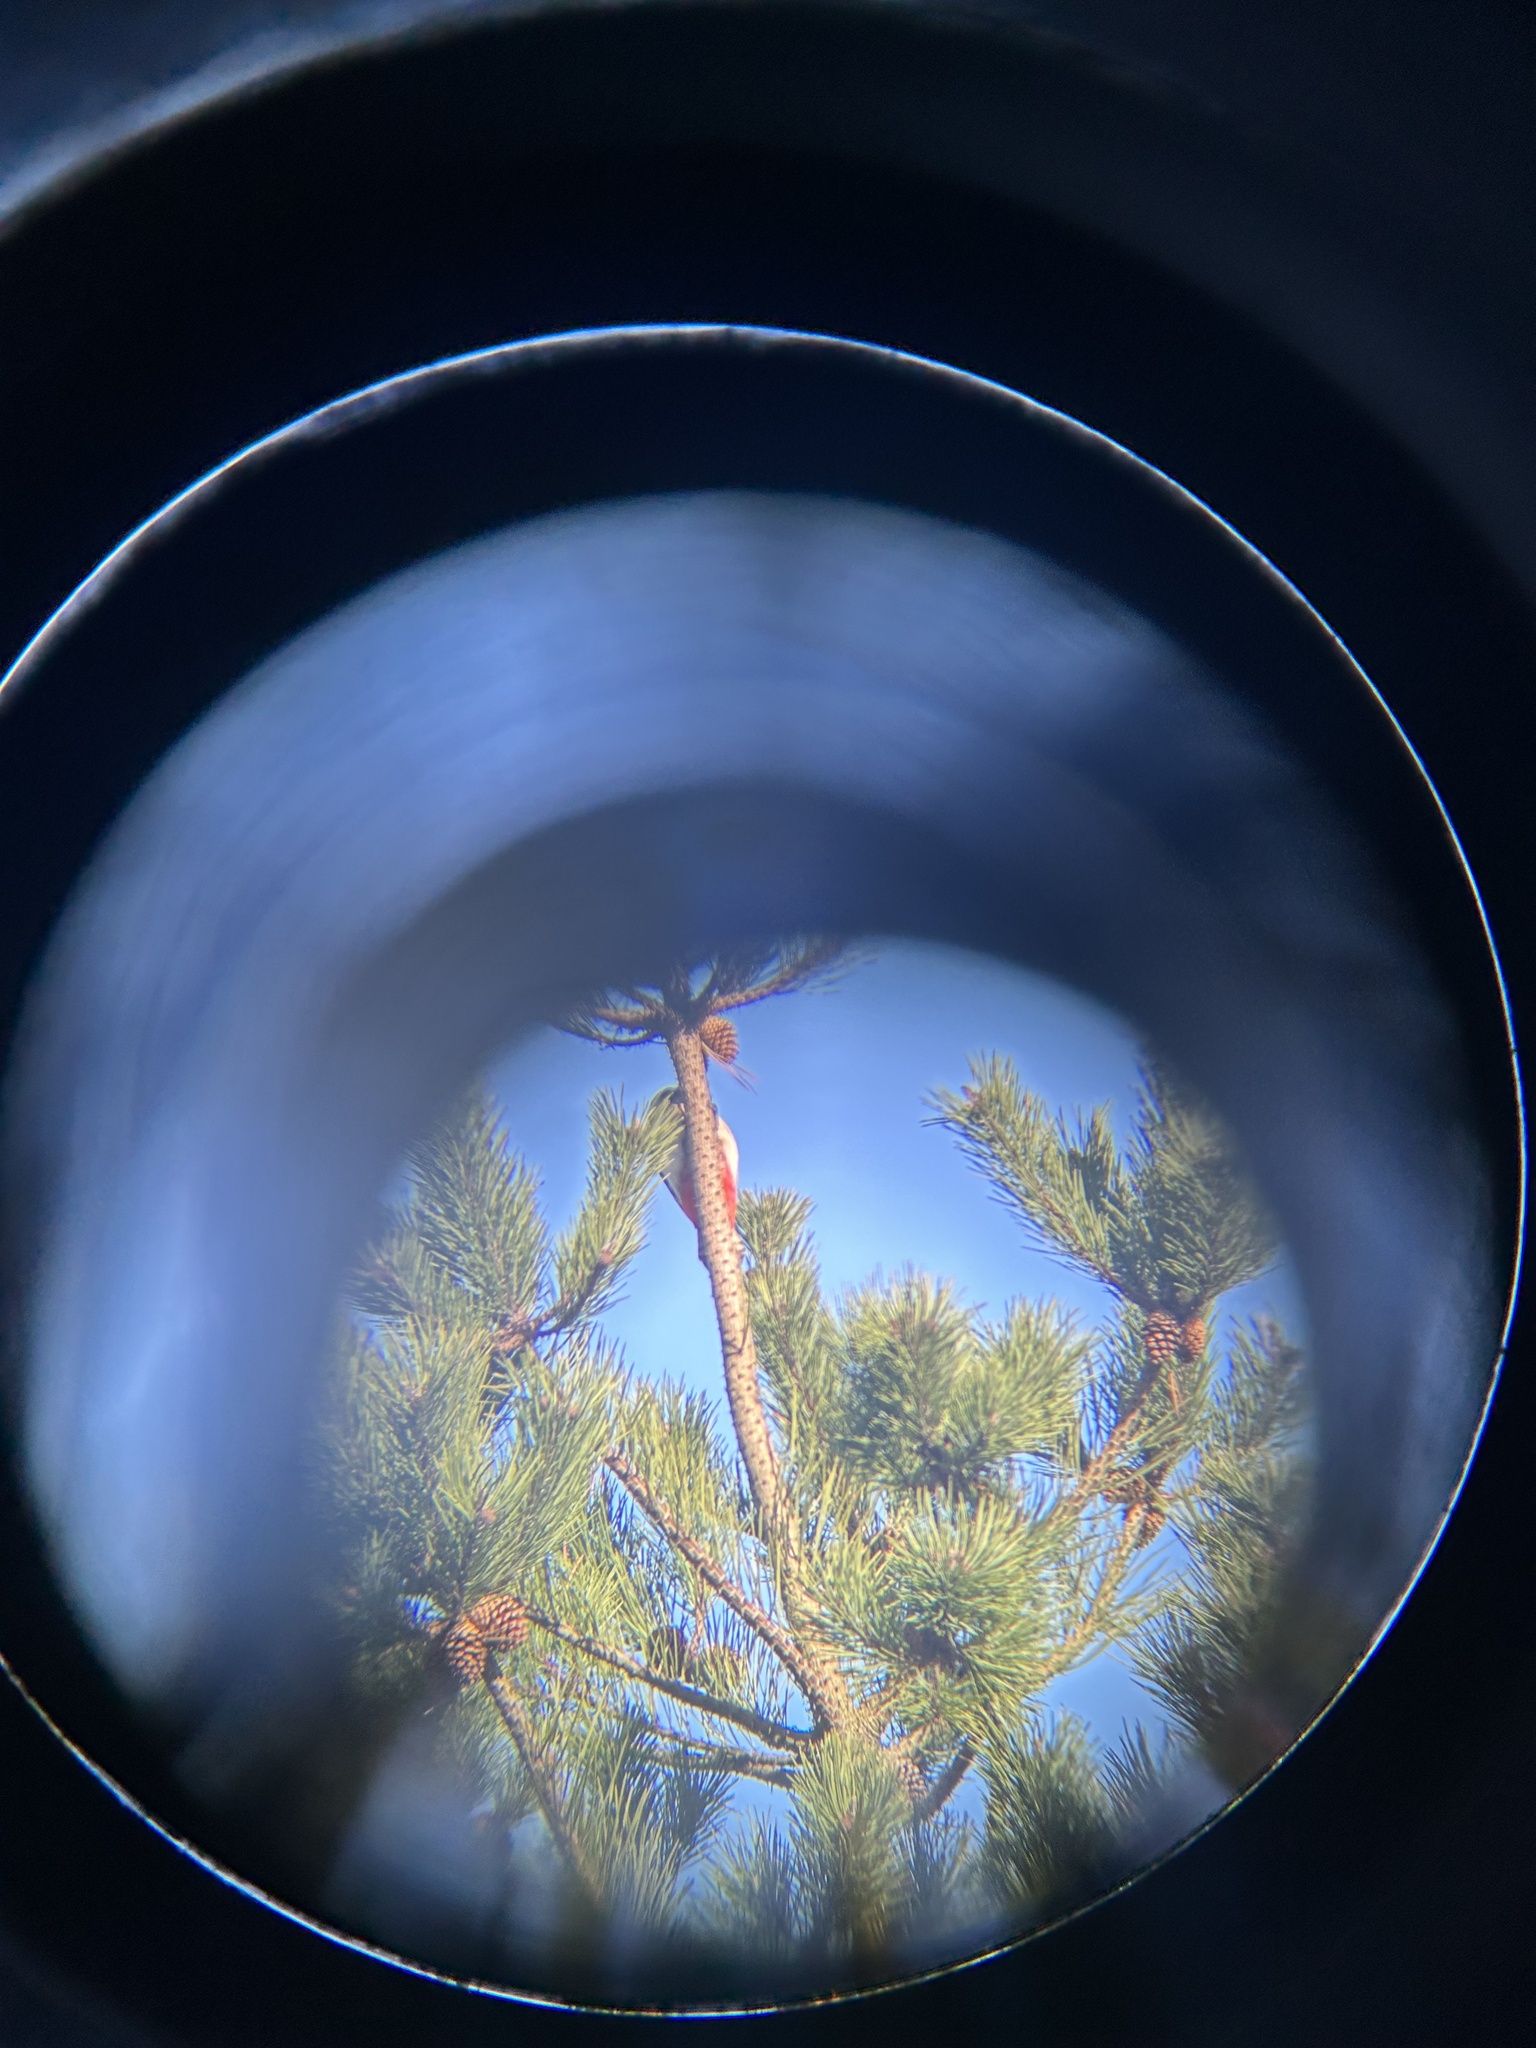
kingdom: Animalia
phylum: Chordata
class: Aves
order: Piciformes
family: Picidae
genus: Dendrocopos
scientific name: Dendrocopos major
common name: Great spotted woodpecker
